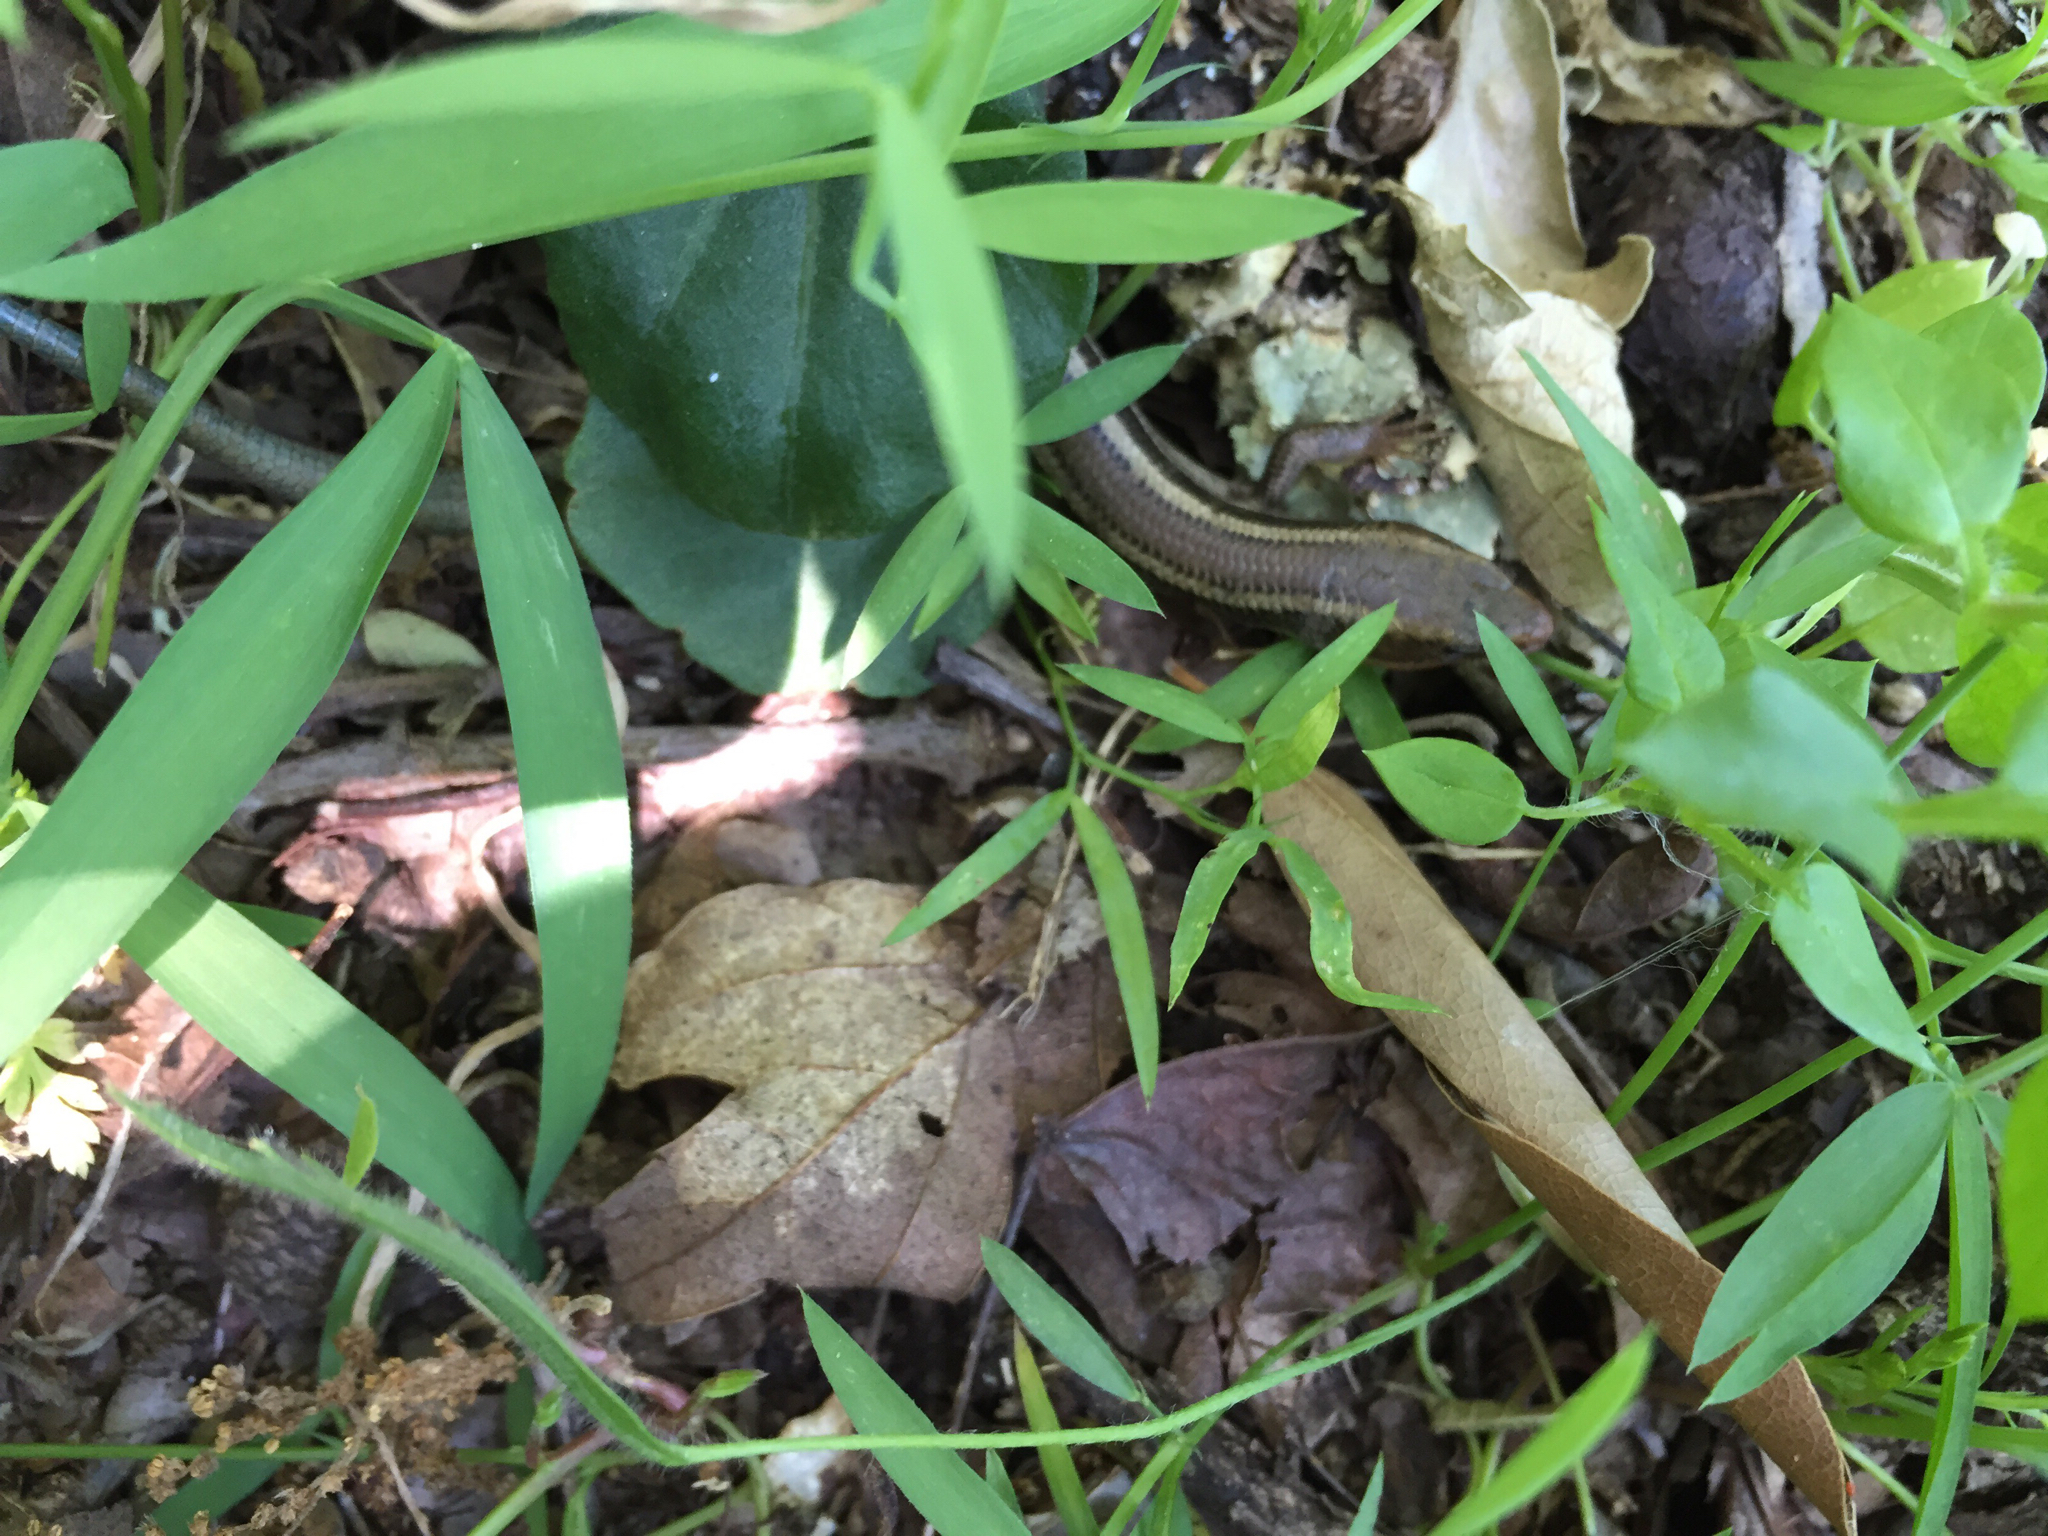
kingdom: Animalia
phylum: Chordata
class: Squamata
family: Scincidae
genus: Plestiodon
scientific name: Plestiodon skiltonianus
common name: Coronado island skink [interparietalis]
